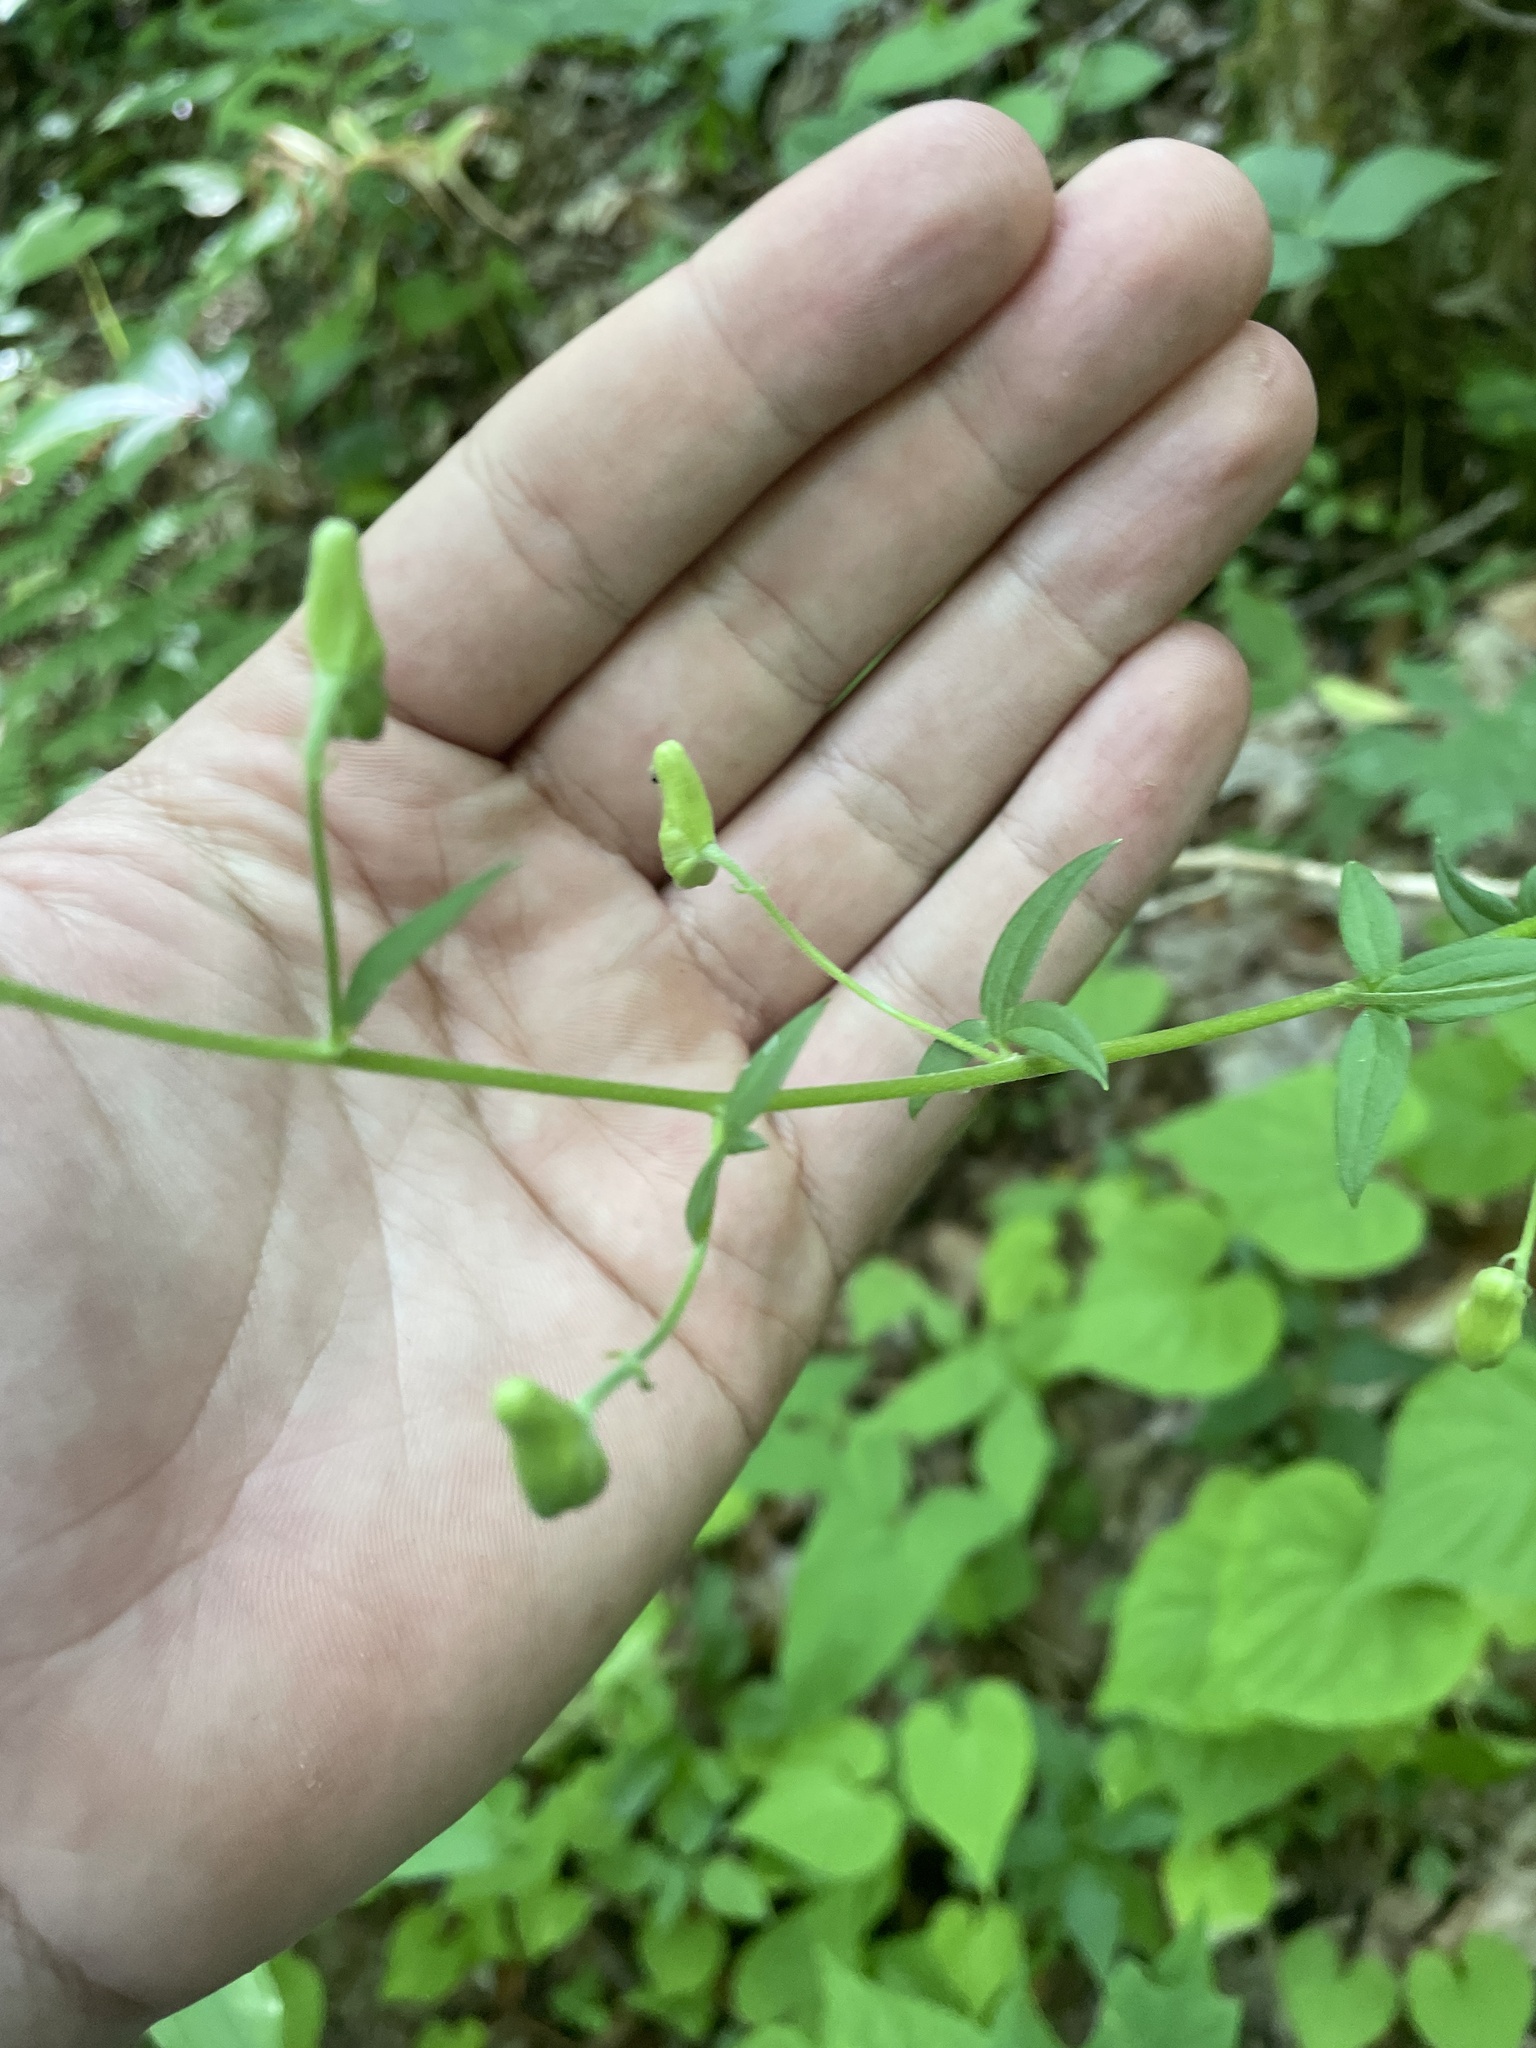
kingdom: Plantae
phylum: Tracheophyta
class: Magnoliopsida
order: Ranunculales
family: Ranunculaceae
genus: Aconitum
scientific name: Aconitum reclinatum
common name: Trailing wolfsbane
